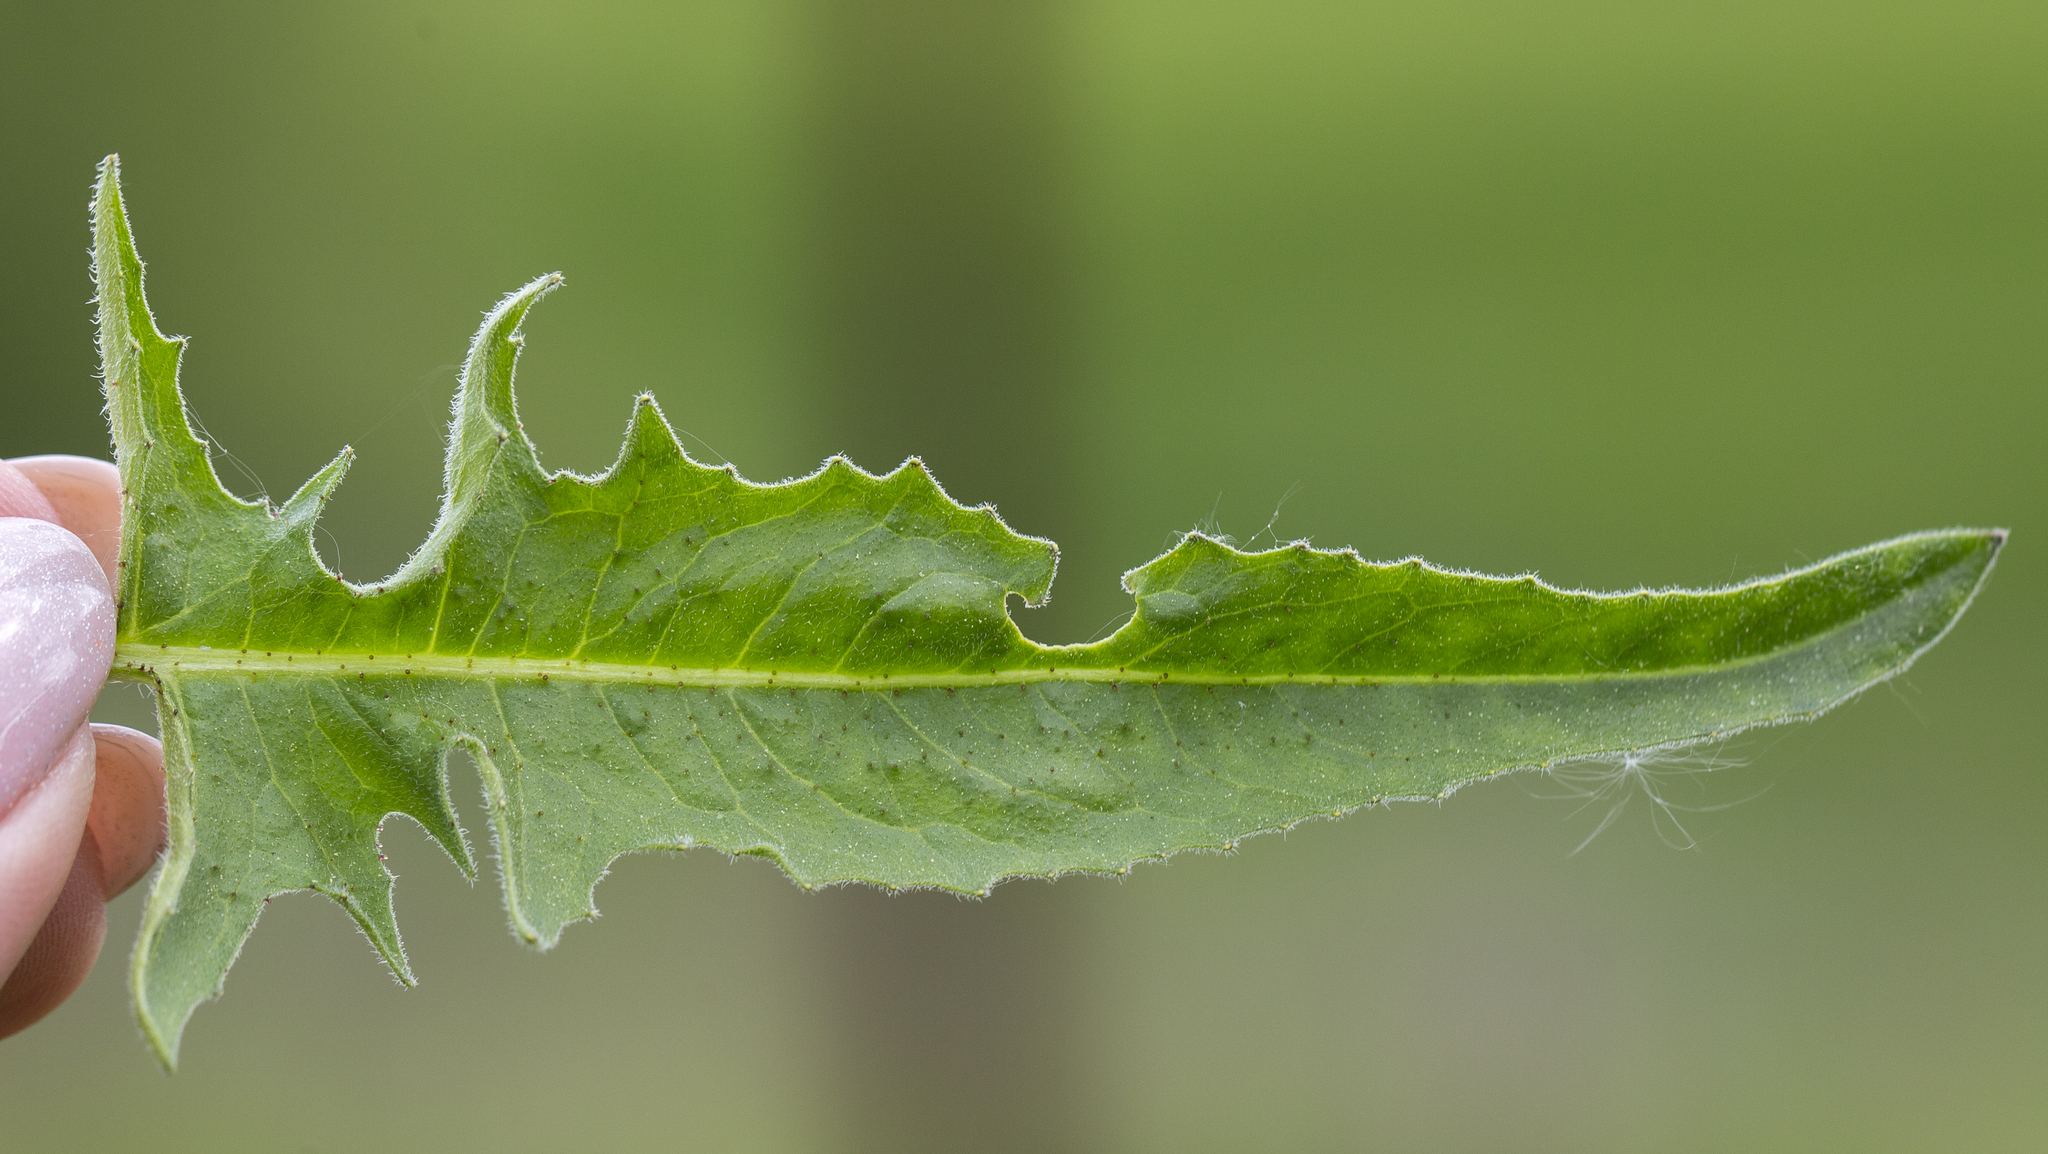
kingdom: Plantae
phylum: Tracheophyta
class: Magnoliopsida
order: Brassicales
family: Brassicaceae
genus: Bunias
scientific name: Bunias orientalis
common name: Warty-cabbage
